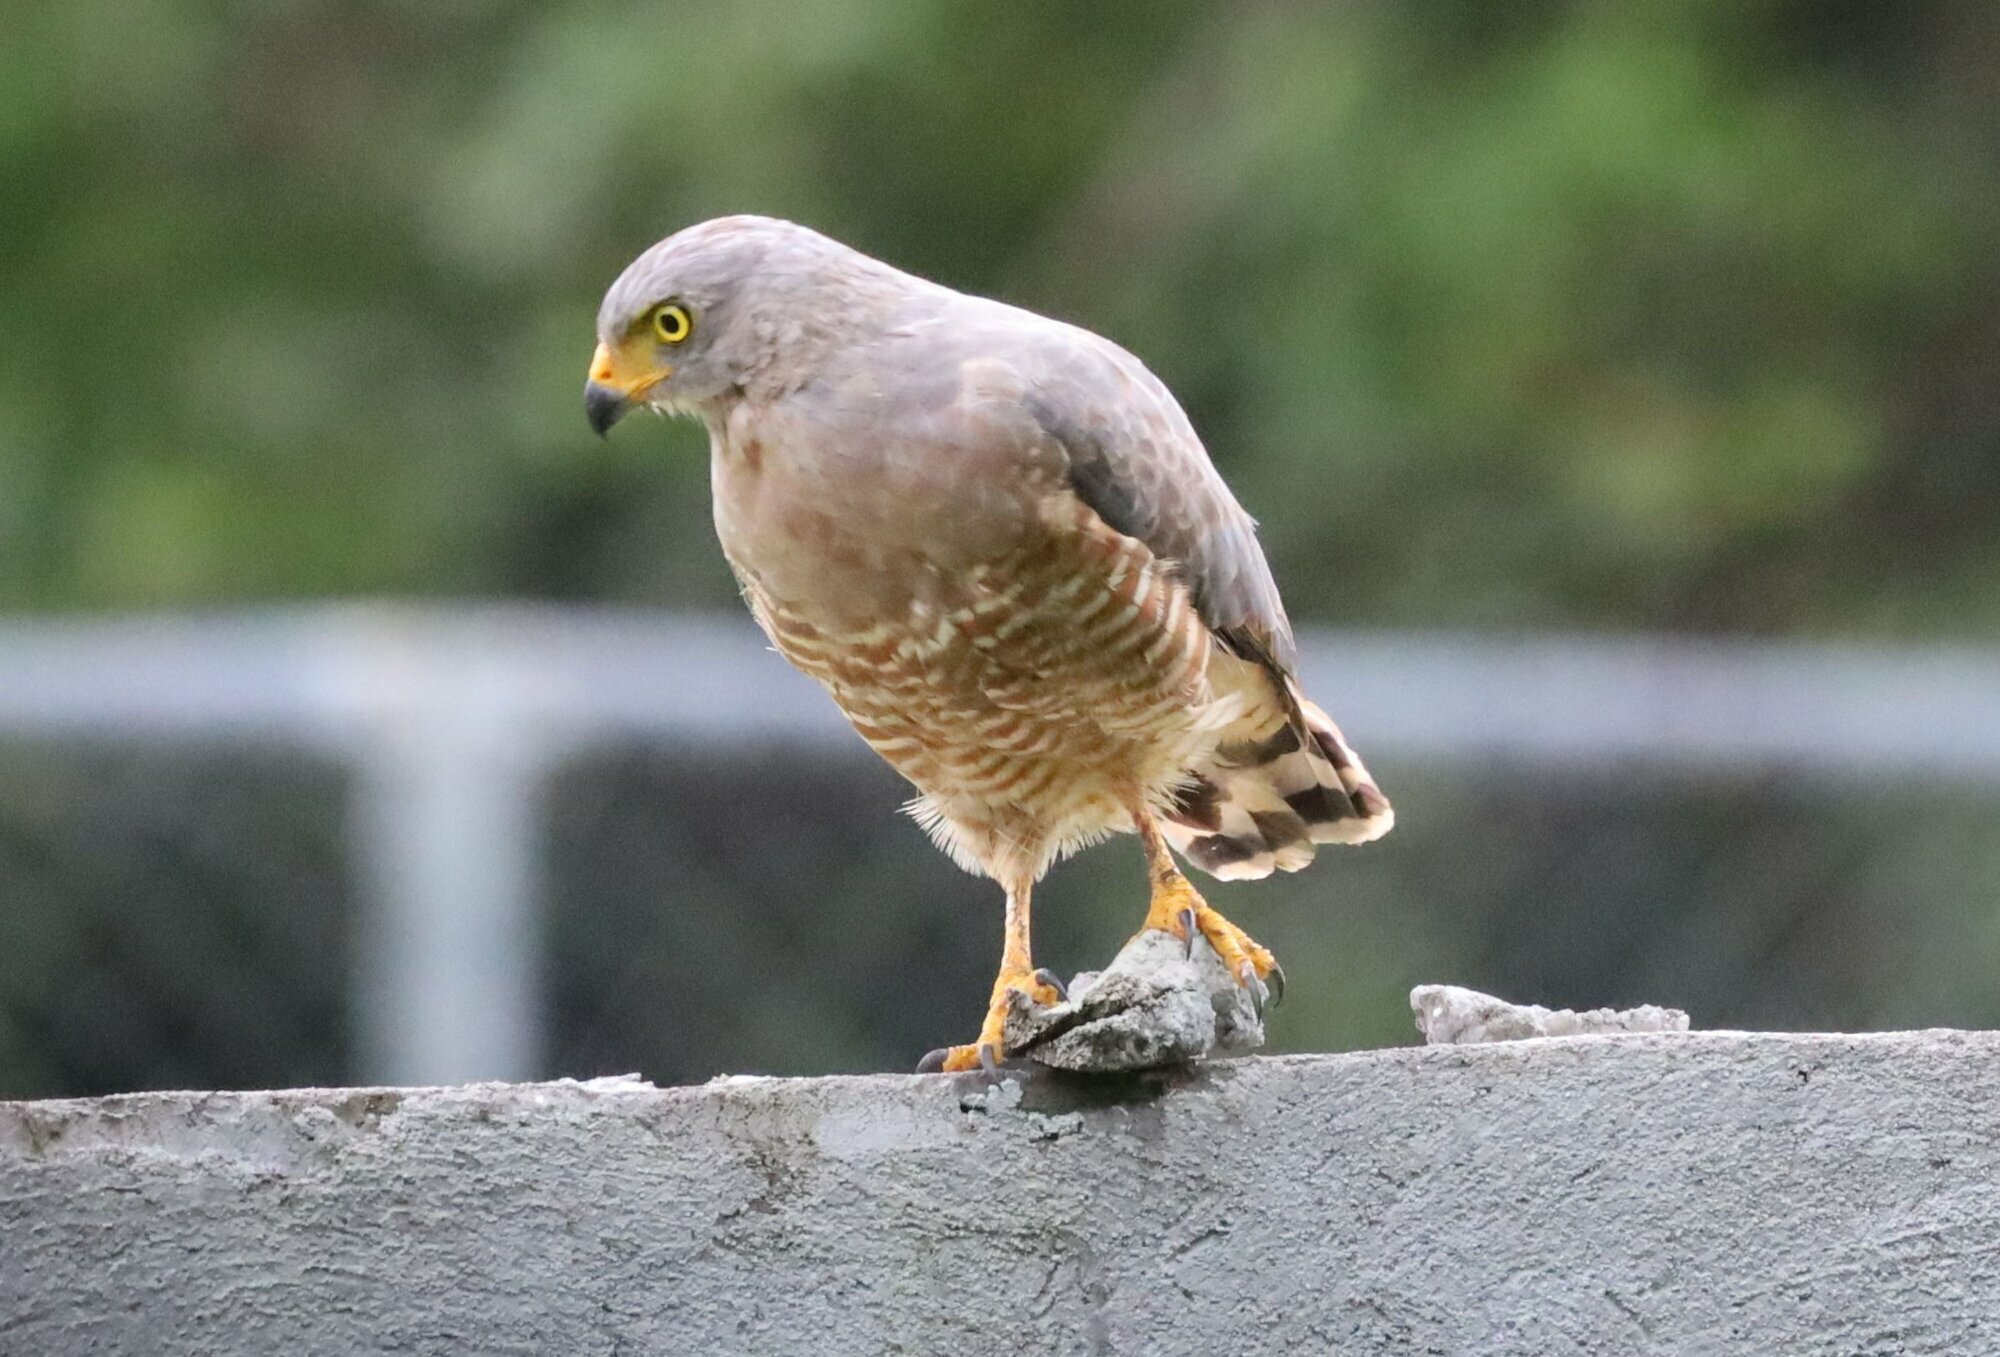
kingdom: Animalia
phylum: Chordata
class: Aves
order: Accipitriformes
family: Accipitridae
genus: Rupornis
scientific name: Rupornis magnirostris
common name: Roadside hawk
